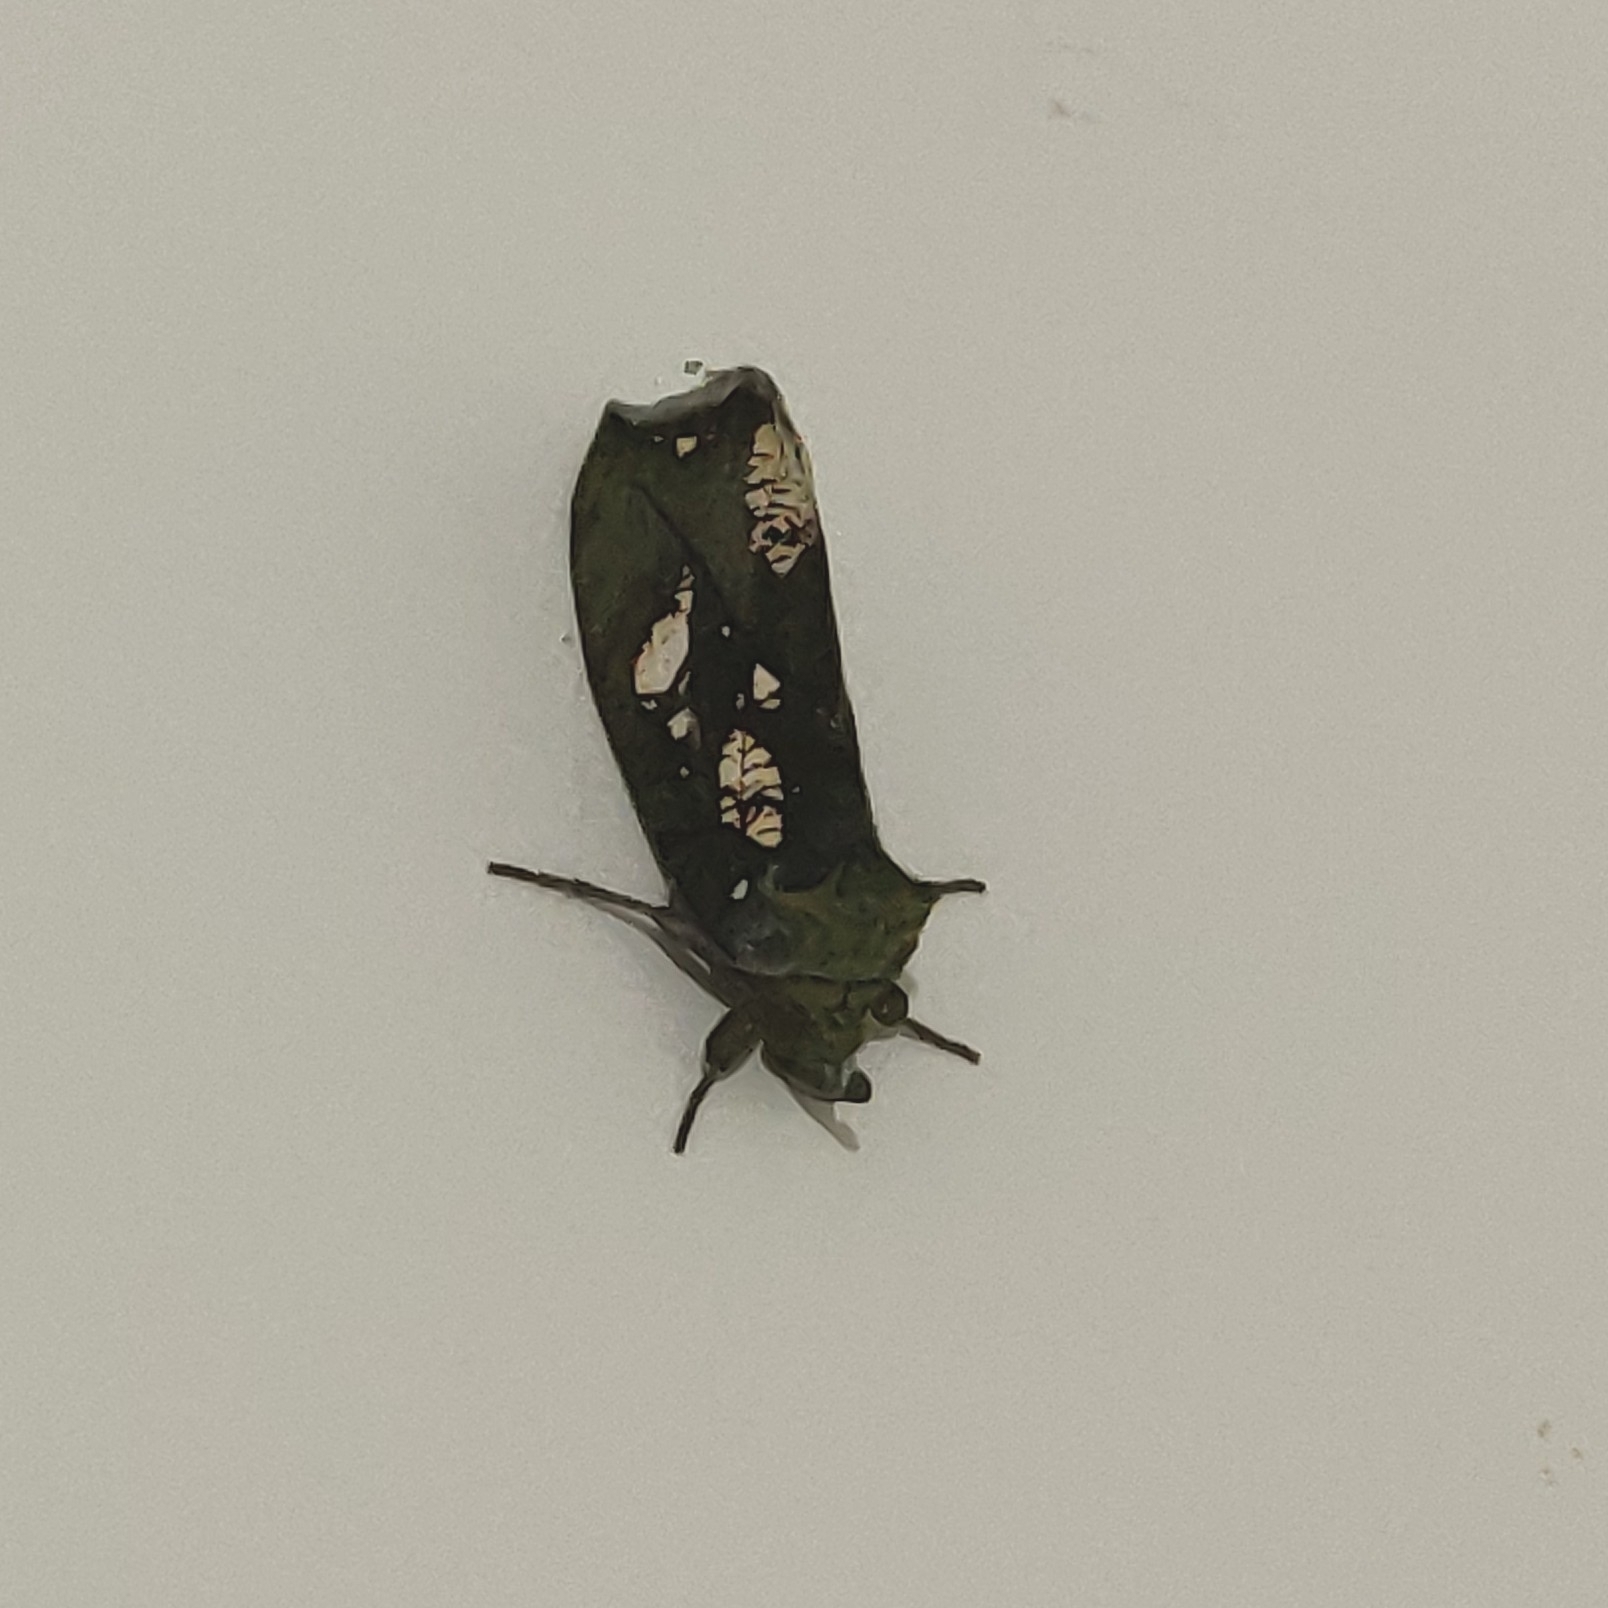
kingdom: Animalia
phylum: Arthropoda
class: Insecta
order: Lepidoptera
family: Erebidae
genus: Eudocima
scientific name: Eudocima hypermnestra
